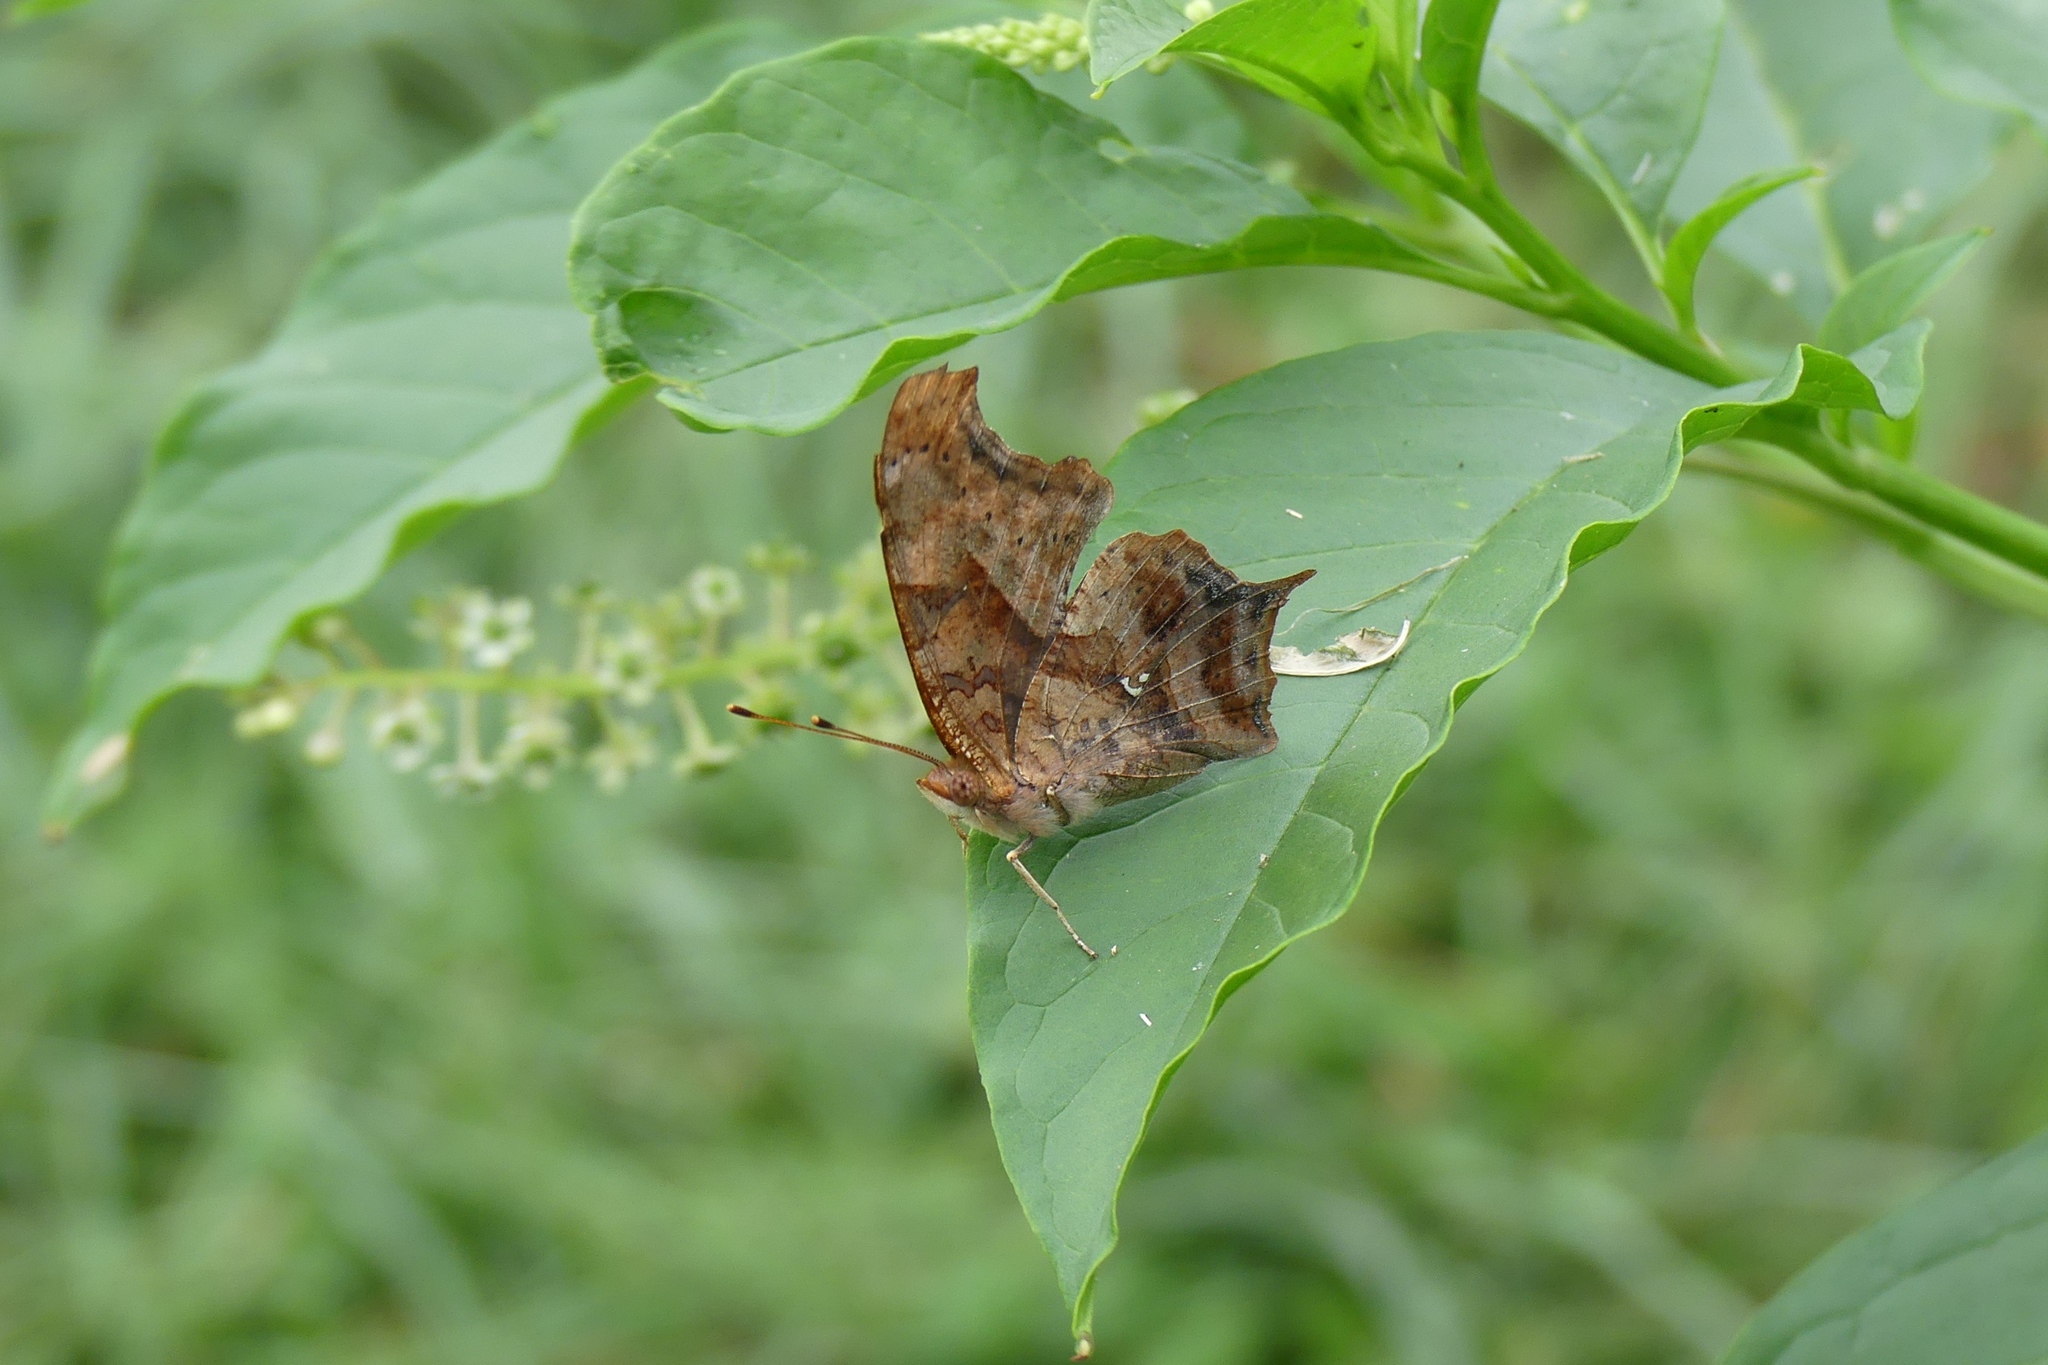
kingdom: Animalia
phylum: Arthropoda
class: Insecta
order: Lepidoptera
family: Nymphalidae
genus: Polygonia
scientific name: Polygonia interrogationis
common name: Question mark
